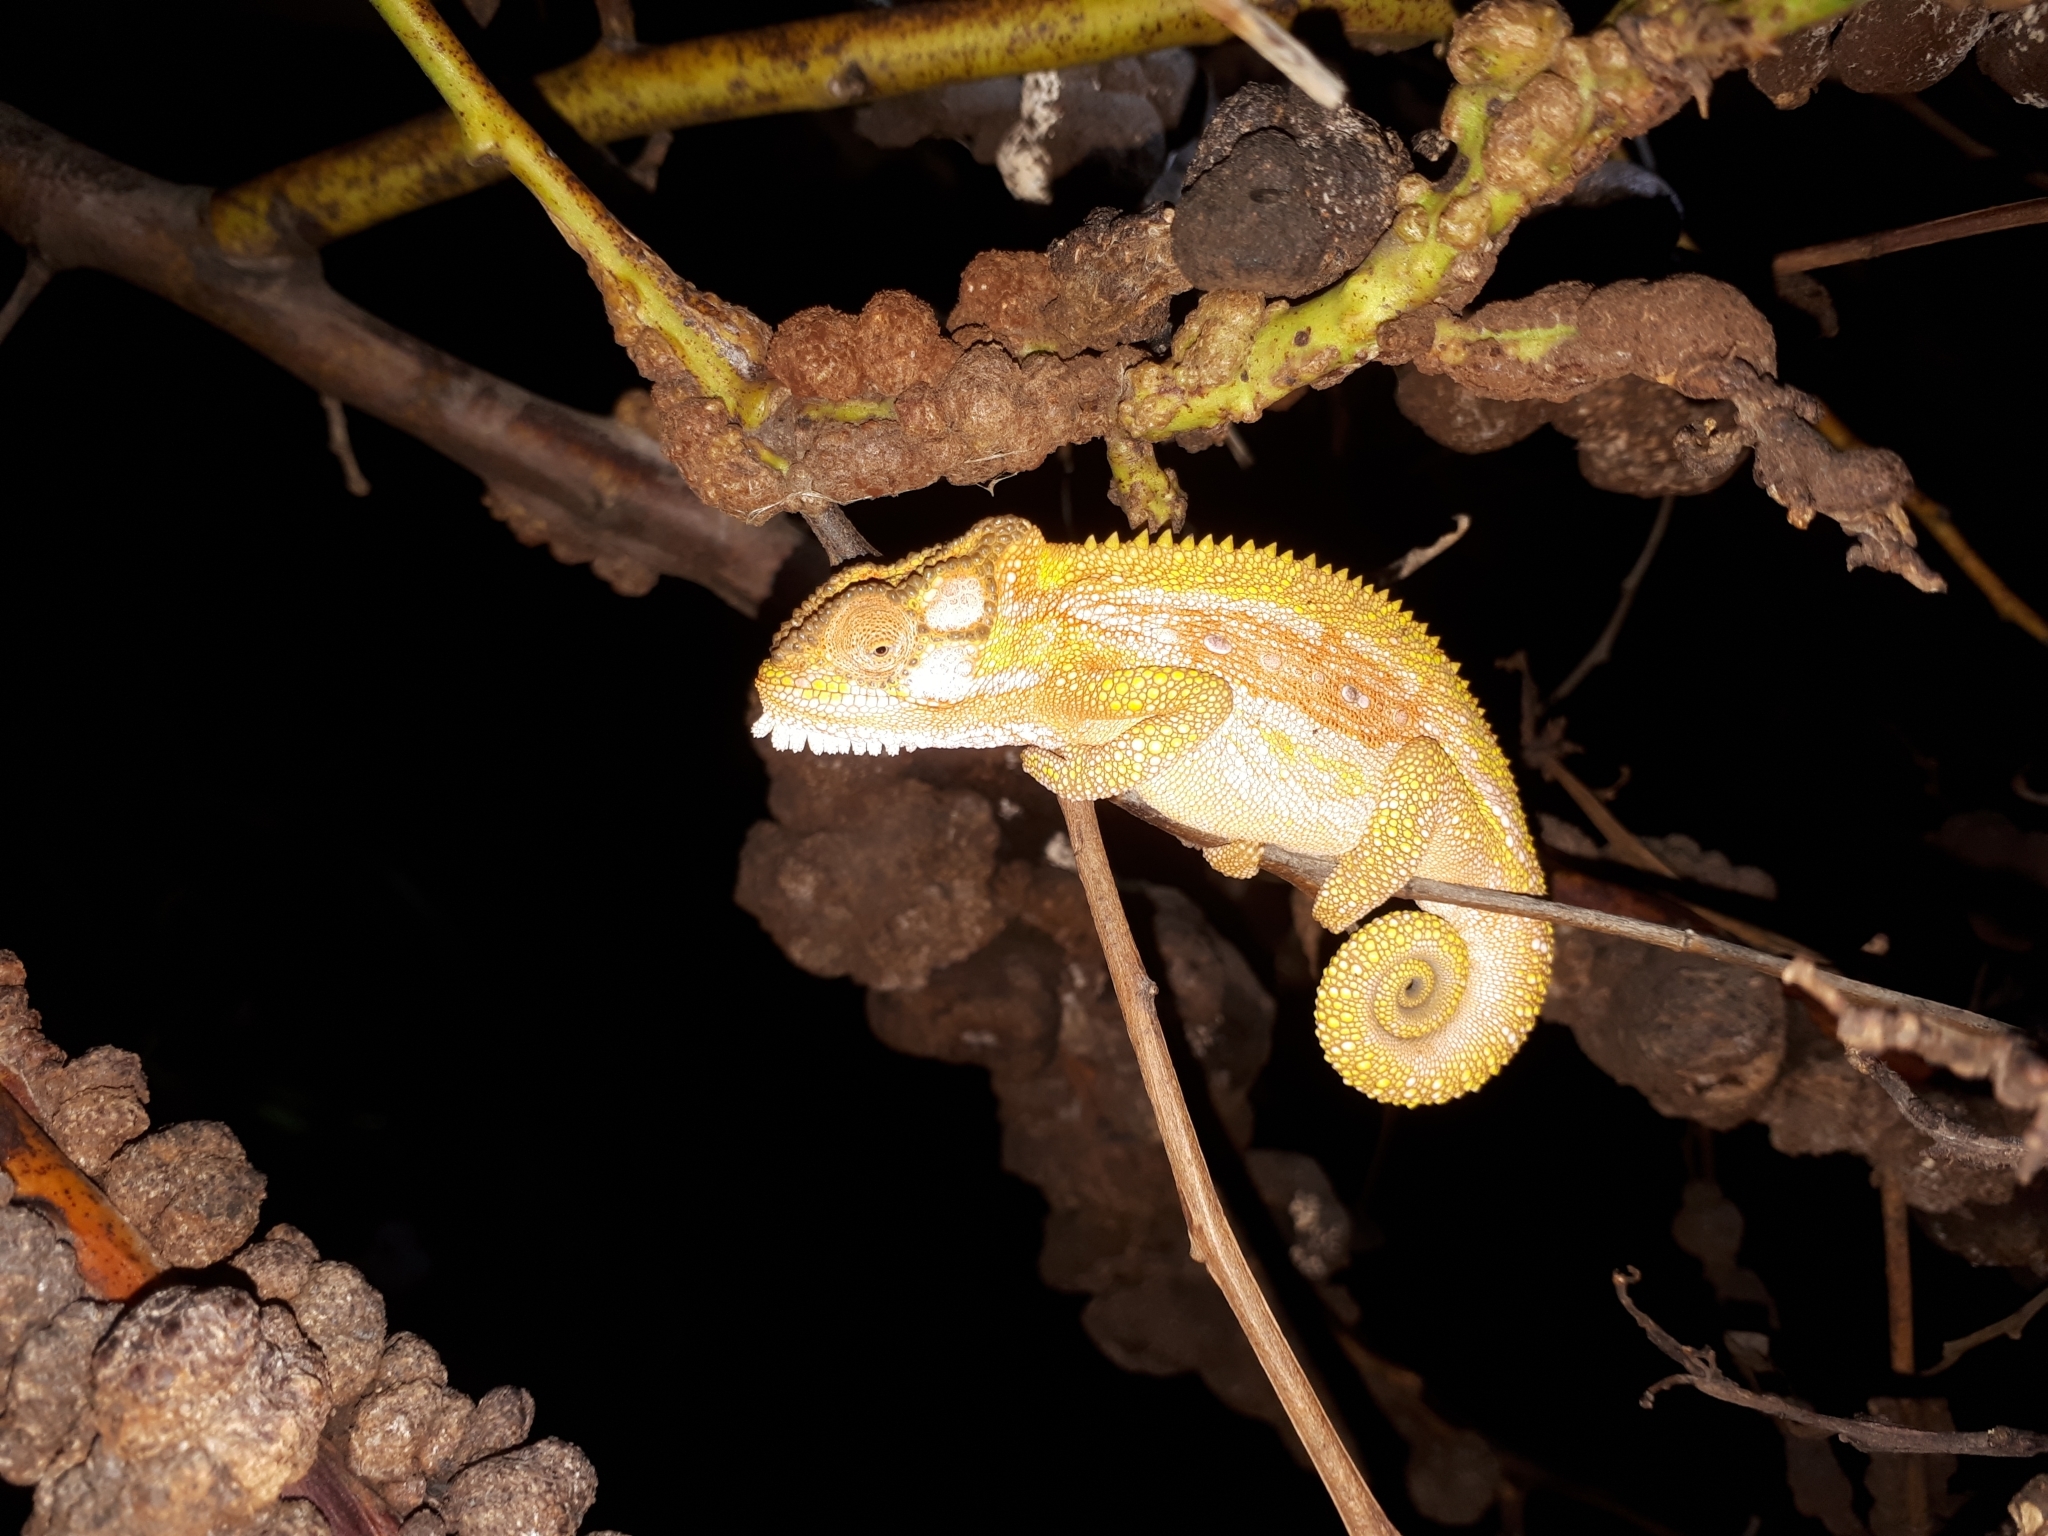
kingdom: Animalia
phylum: Chordata
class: Squamata
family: Chamaeleonidae
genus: Bradypodion
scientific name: Bradypodion pumilum
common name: Cape dwarf chameleon
